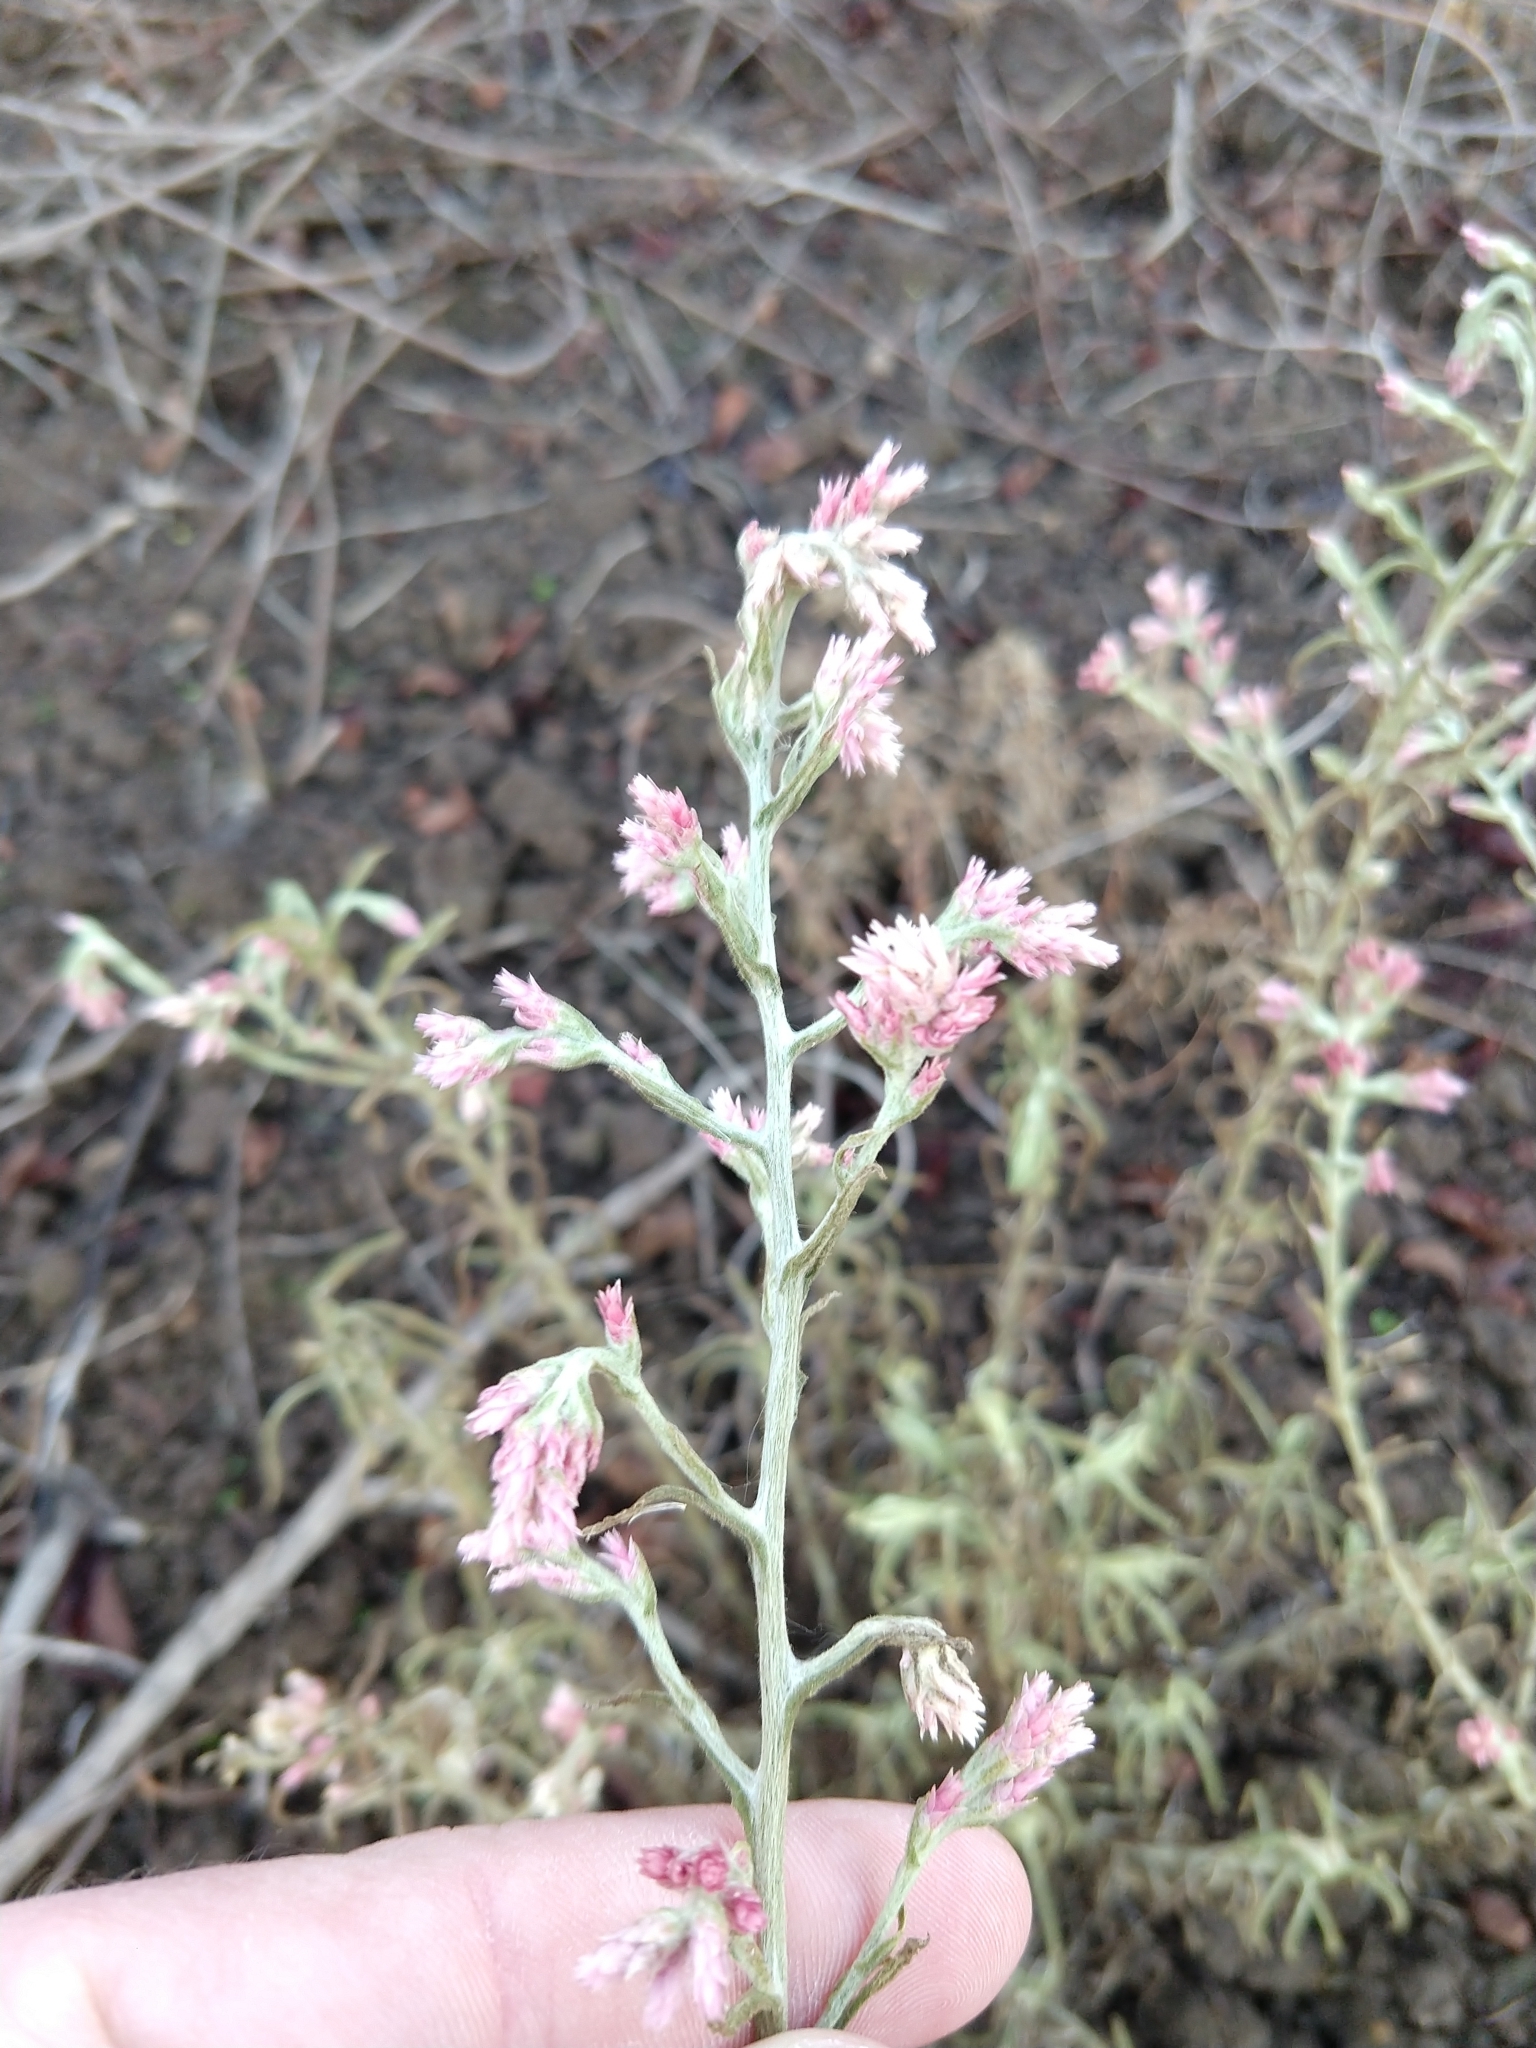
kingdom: Plantae
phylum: Tracheophyta
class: Magnoliopsida
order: Asterales
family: Asteraceae
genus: Pseudognaphalium
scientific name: Pseudognaphalium ramosissimum
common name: Pink rabbit-tobacco
